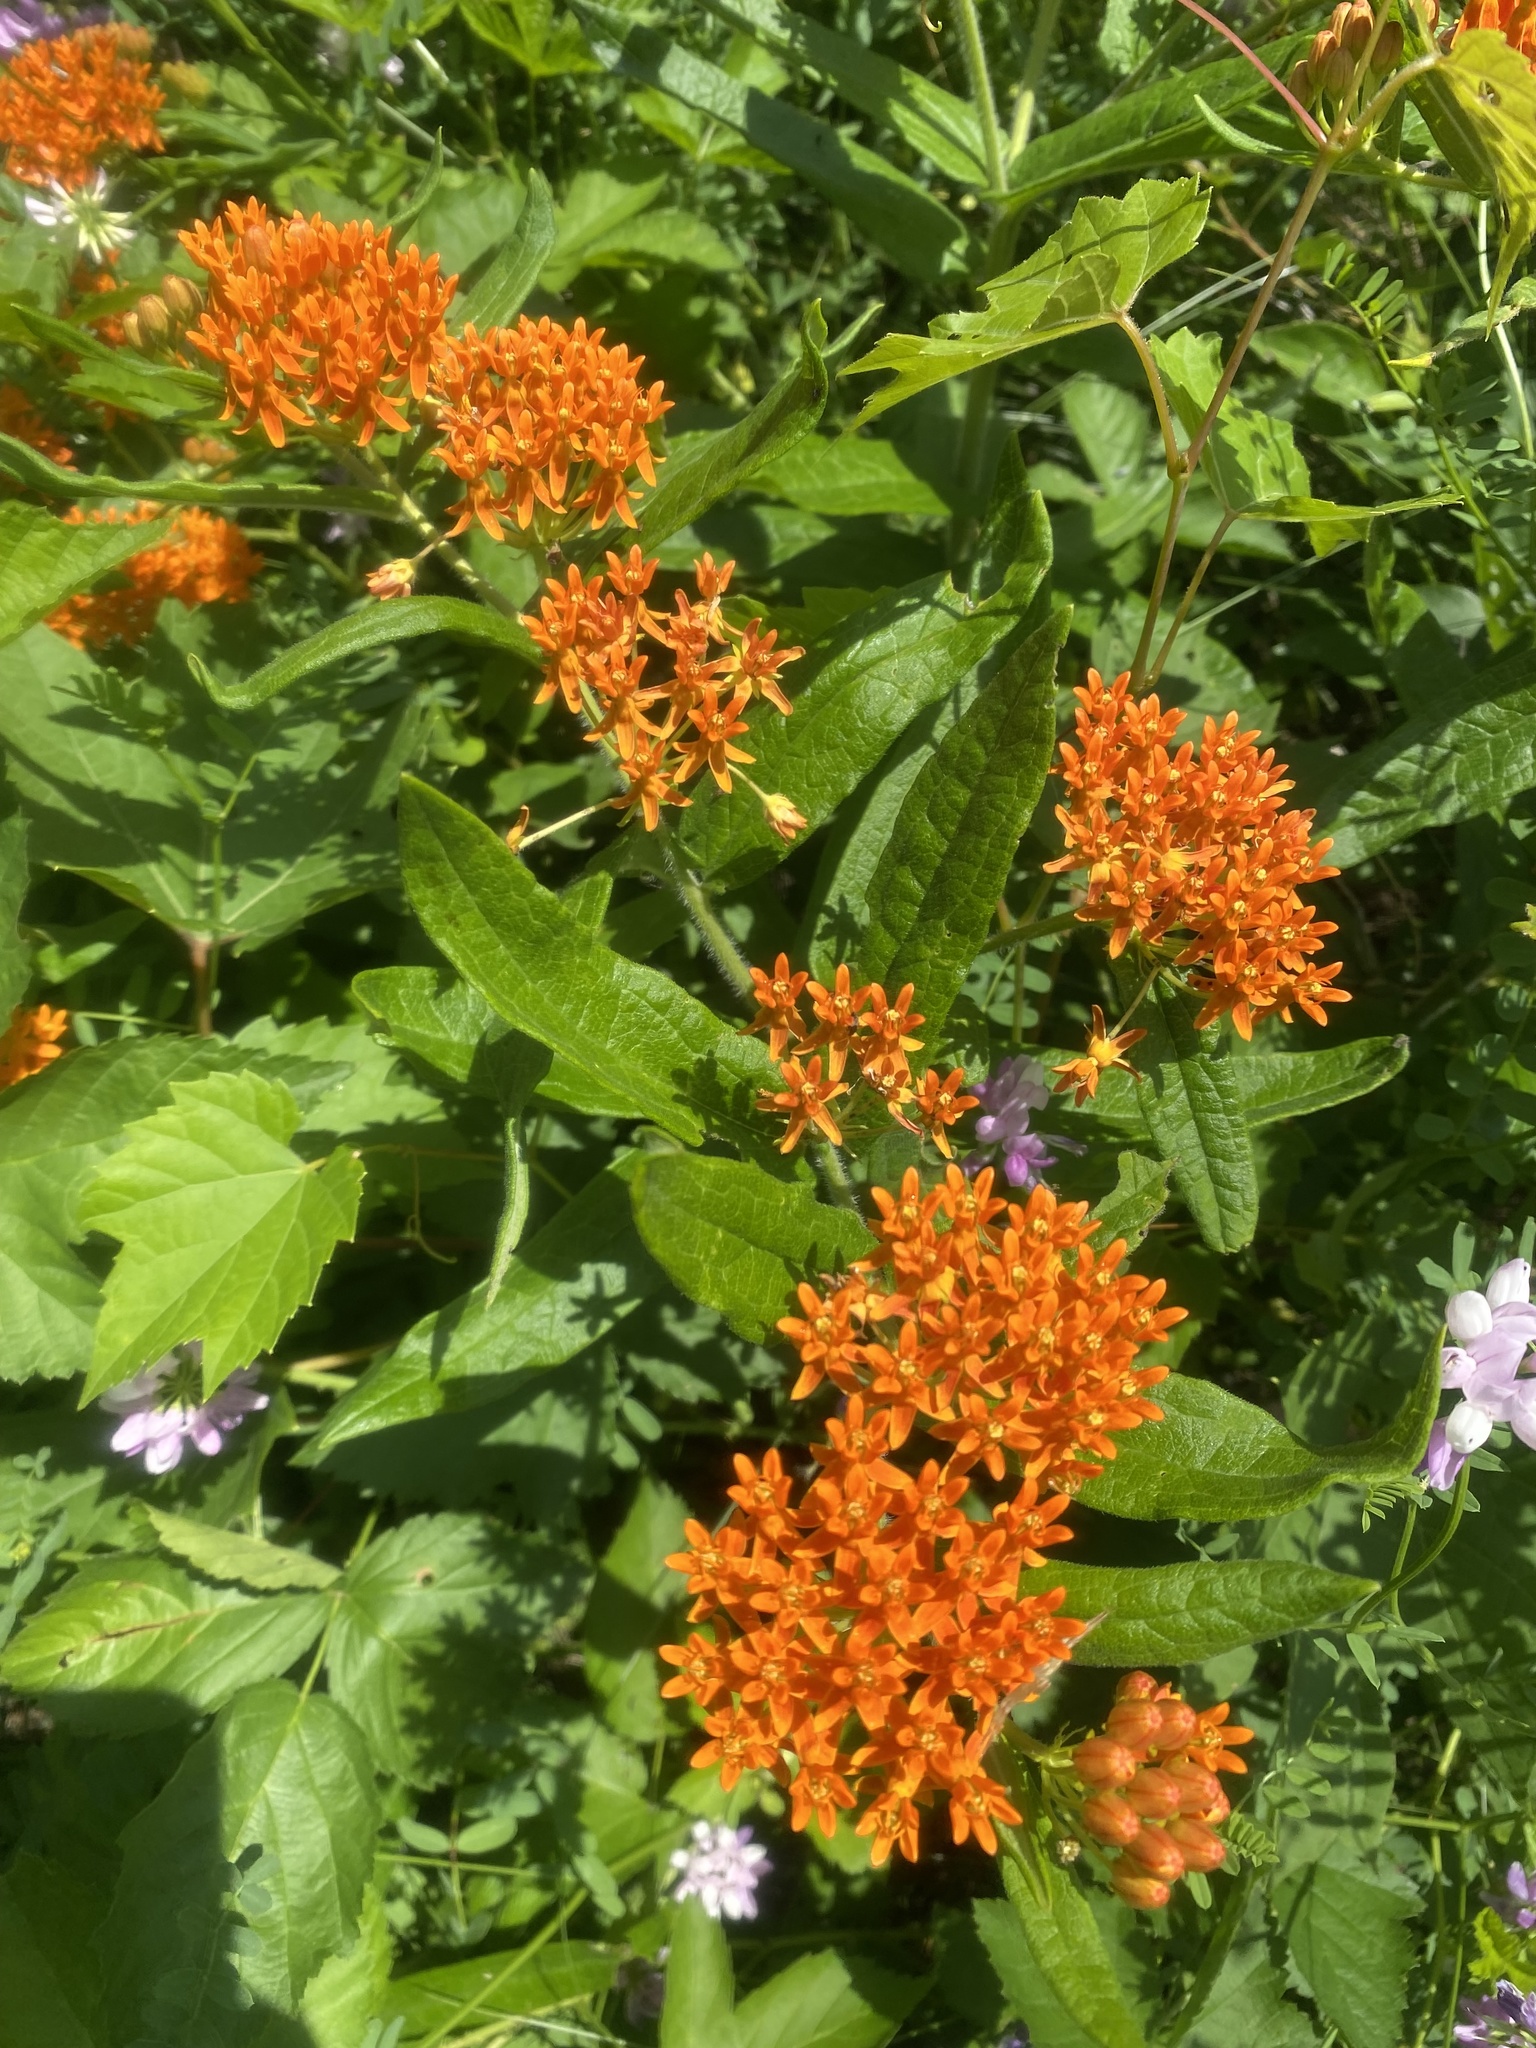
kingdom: Plantae
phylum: Tracheophyta
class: Magnoliopsida
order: Gentianales
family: Apocynaceae
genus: Asclepias
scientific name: Asclepias tuberosa
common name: Butterfly milkweed
